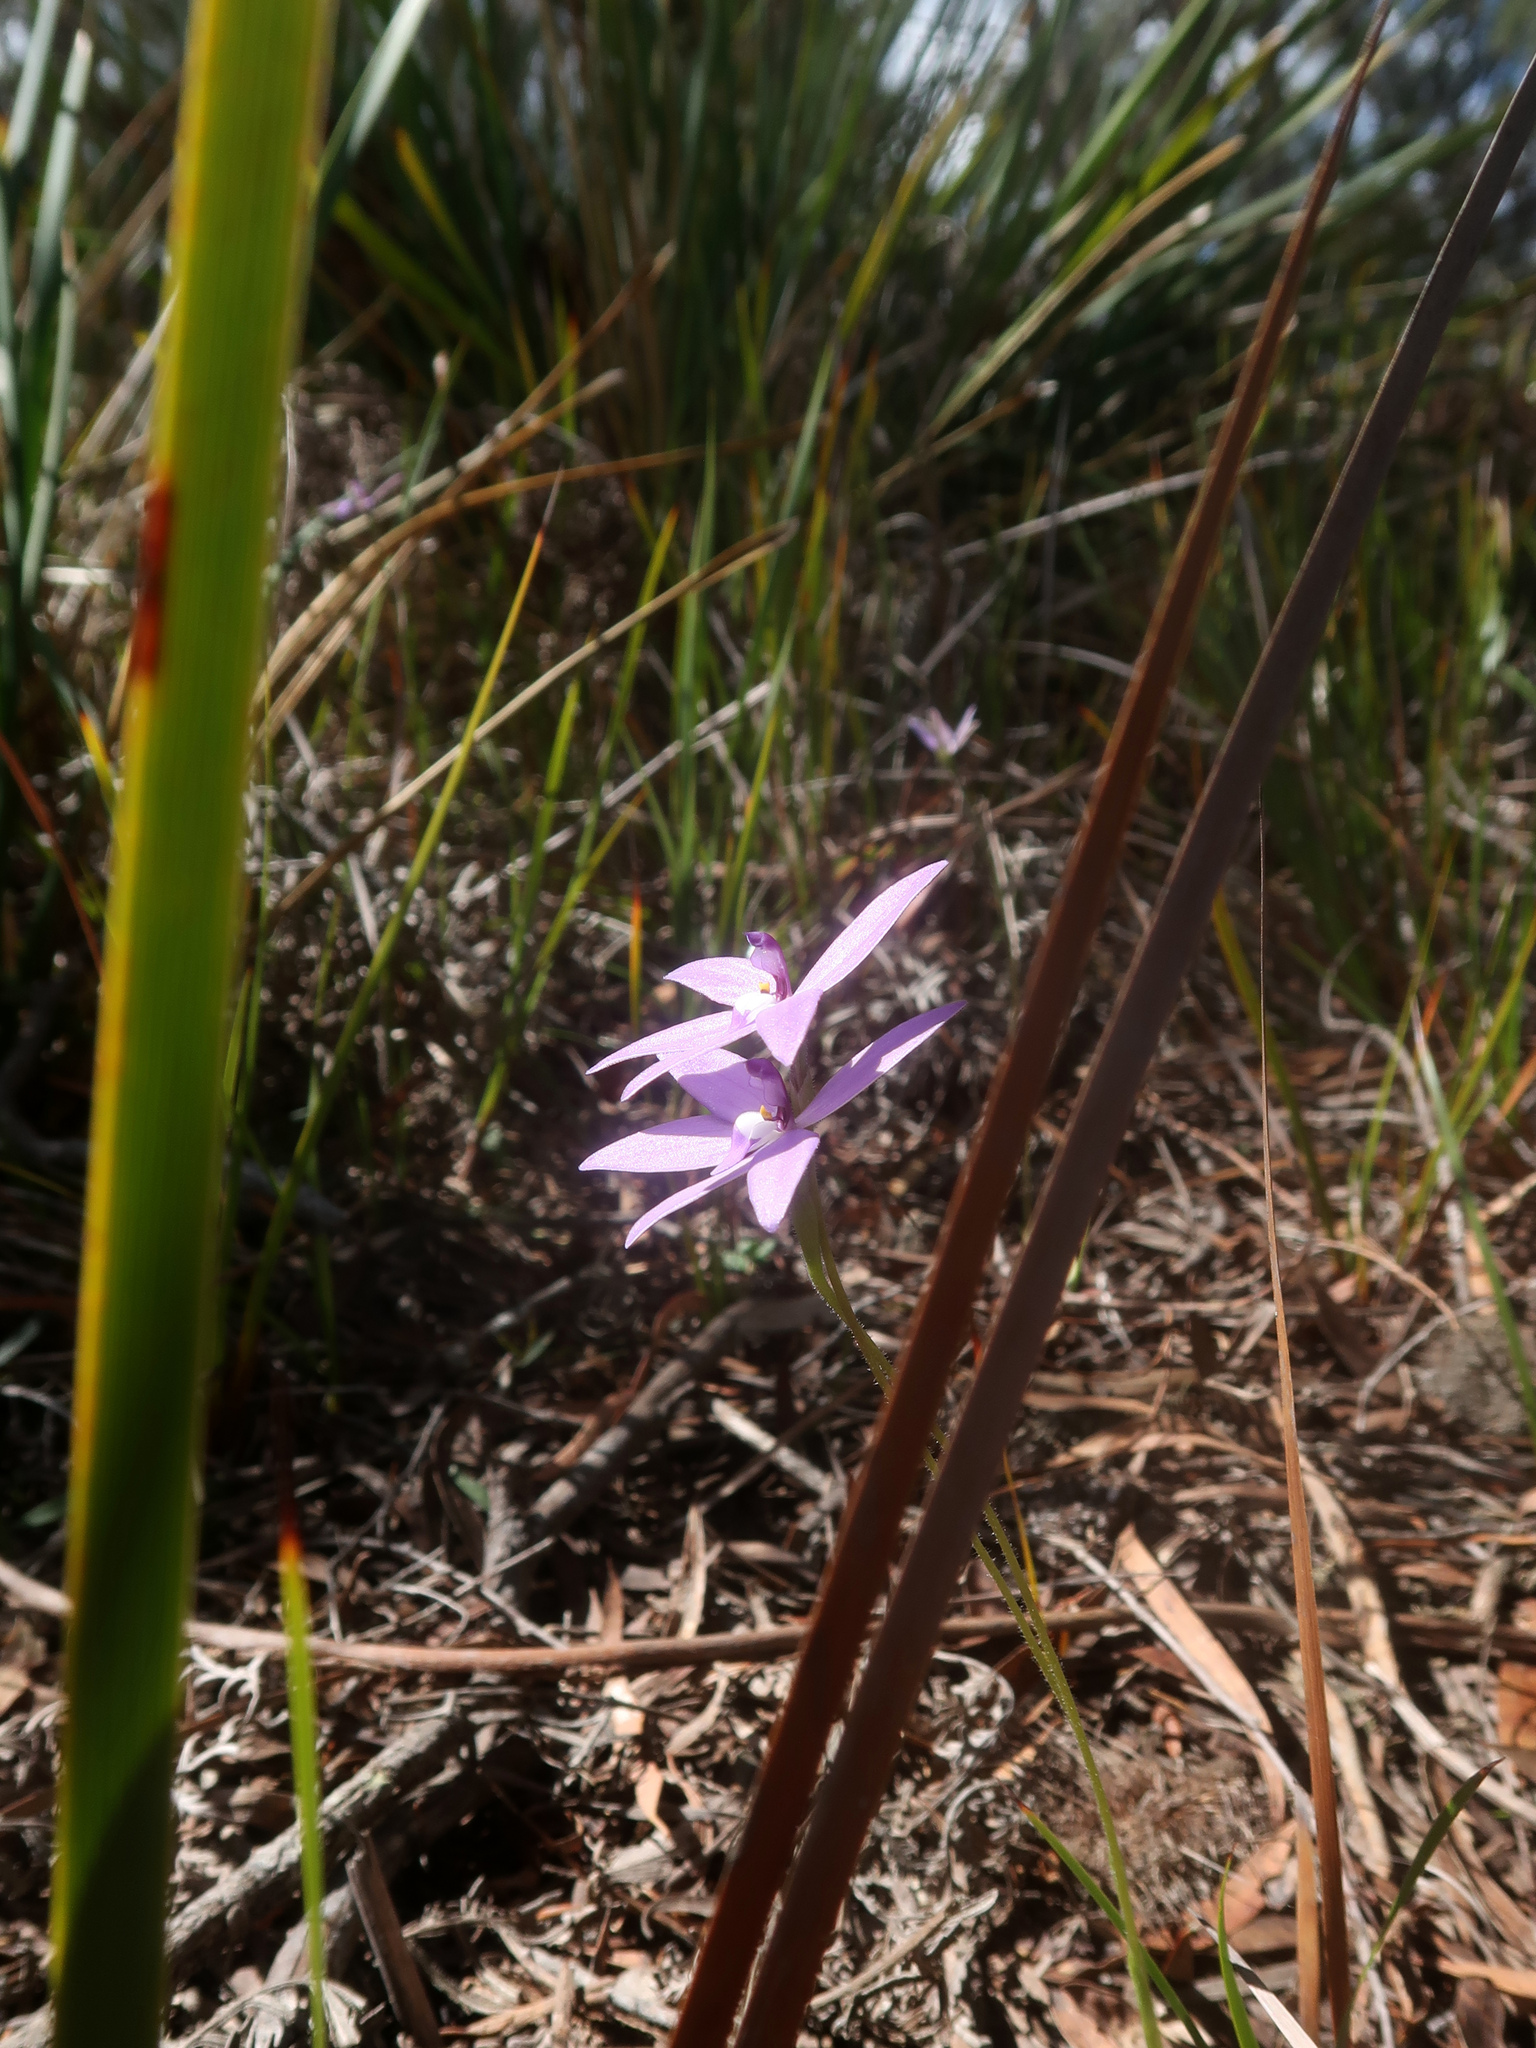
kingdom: Plantae
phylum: Tracheophyta
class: Liliopsida
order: Asparagales
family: Orchidaceae
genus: Caladenia
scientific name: Caladenia major
